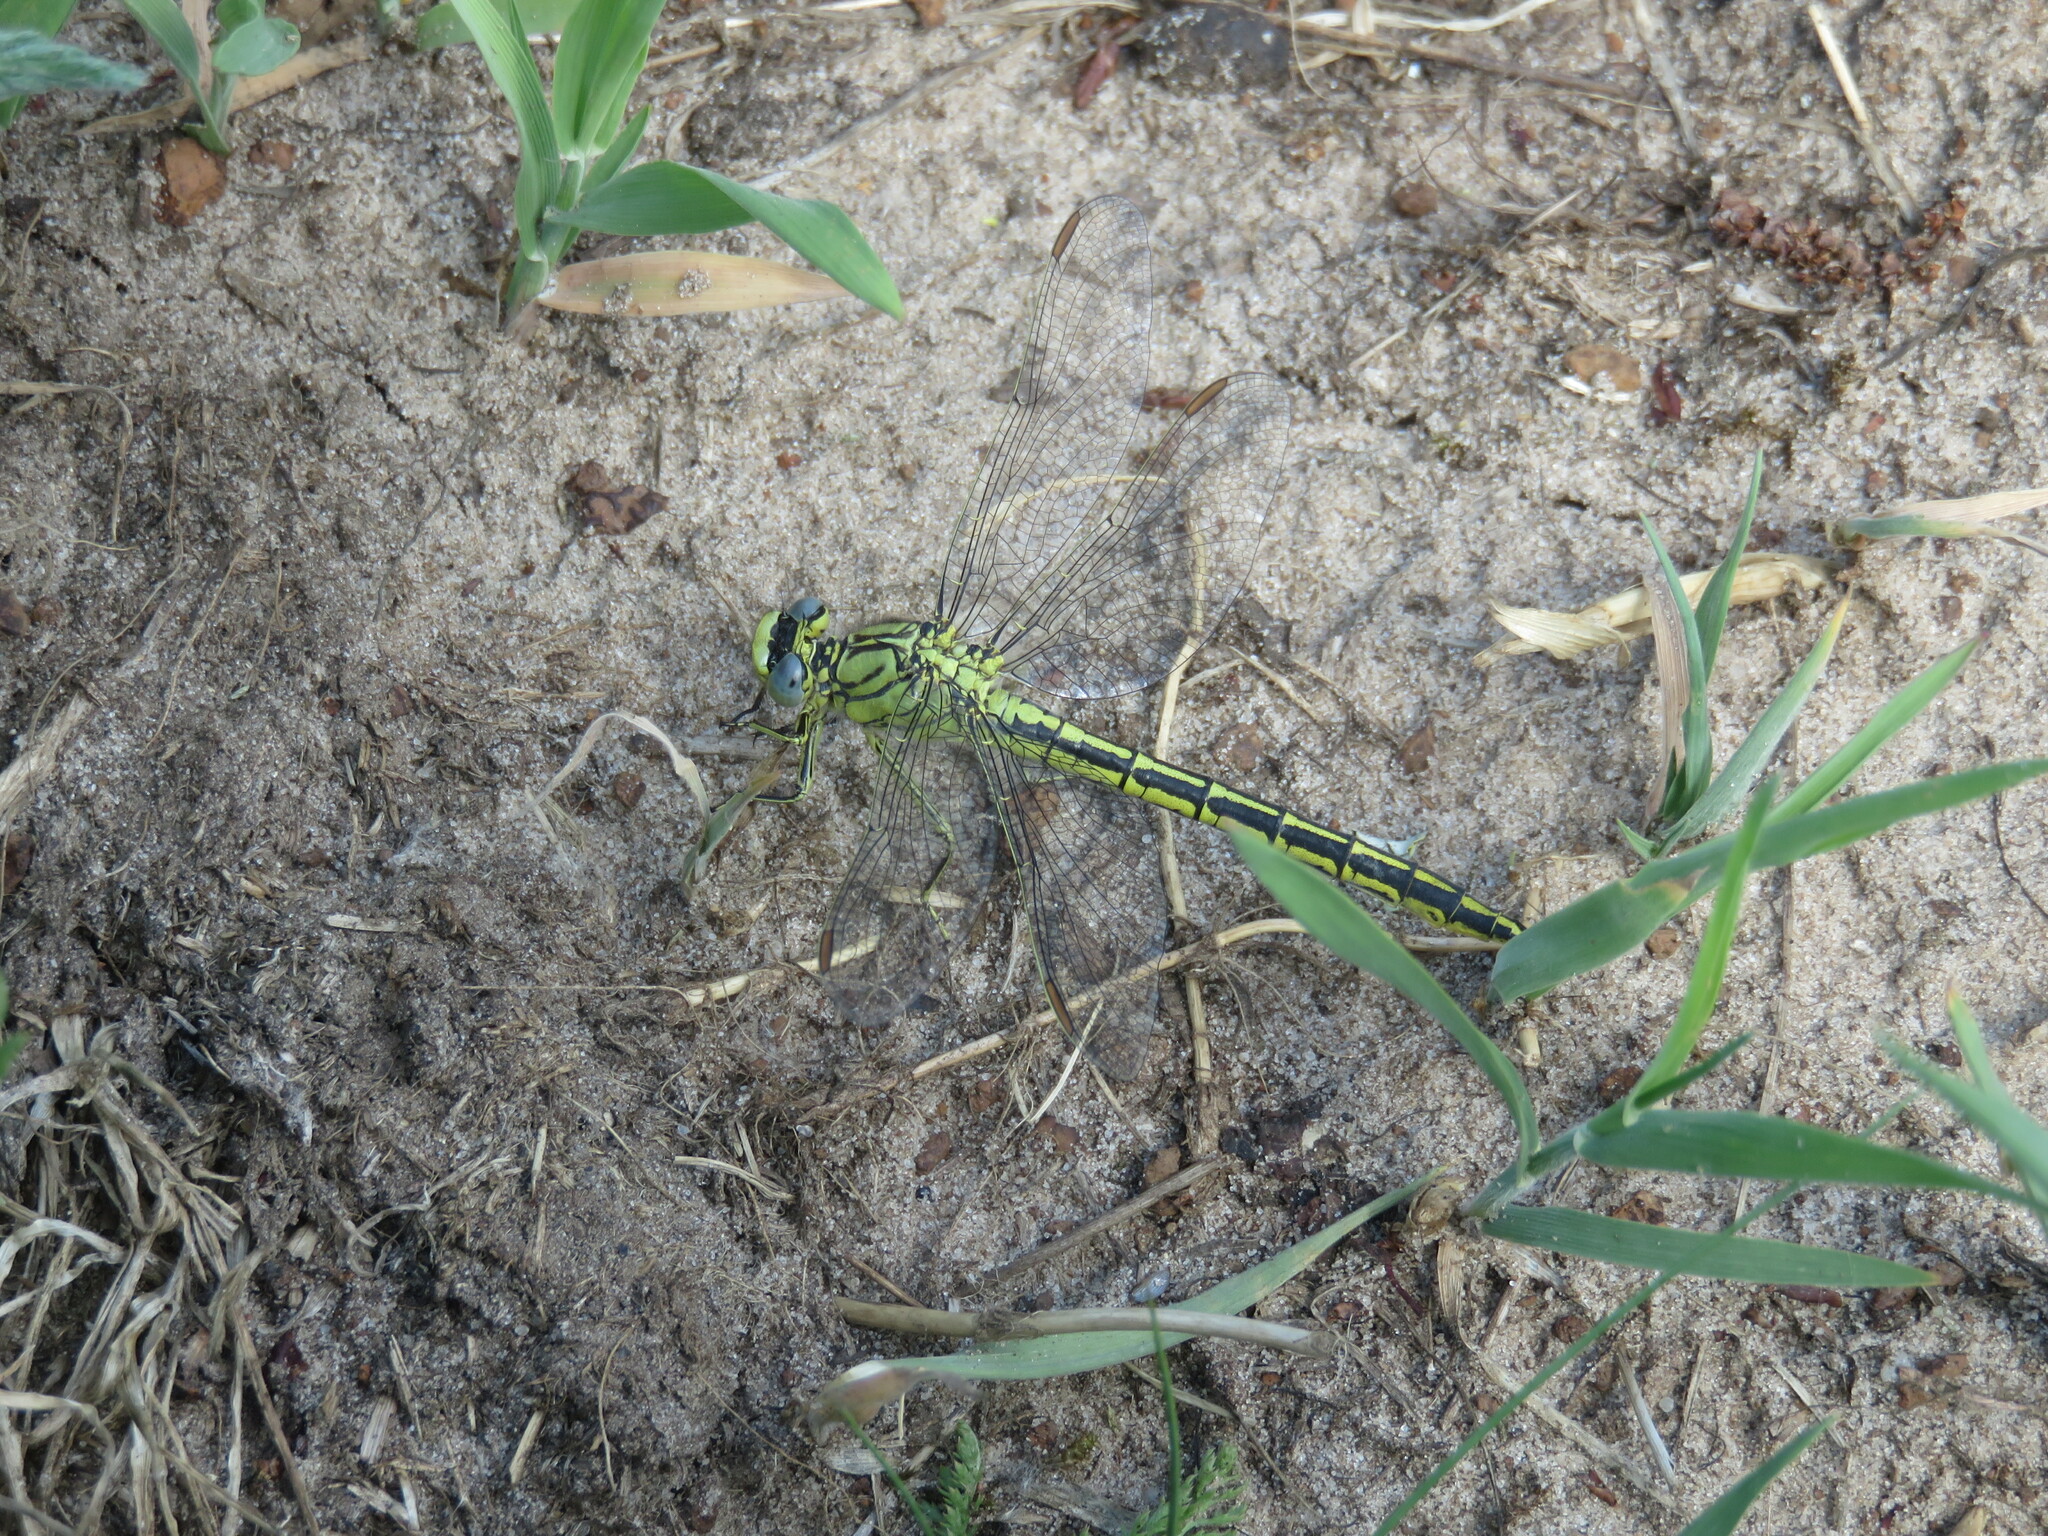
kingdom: Animalia
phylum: Arthropoda
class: Insecta
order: Odonata
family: Gomphidae
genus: Gomphus
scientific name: Gomphus pulchellus
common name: Western clubtail
